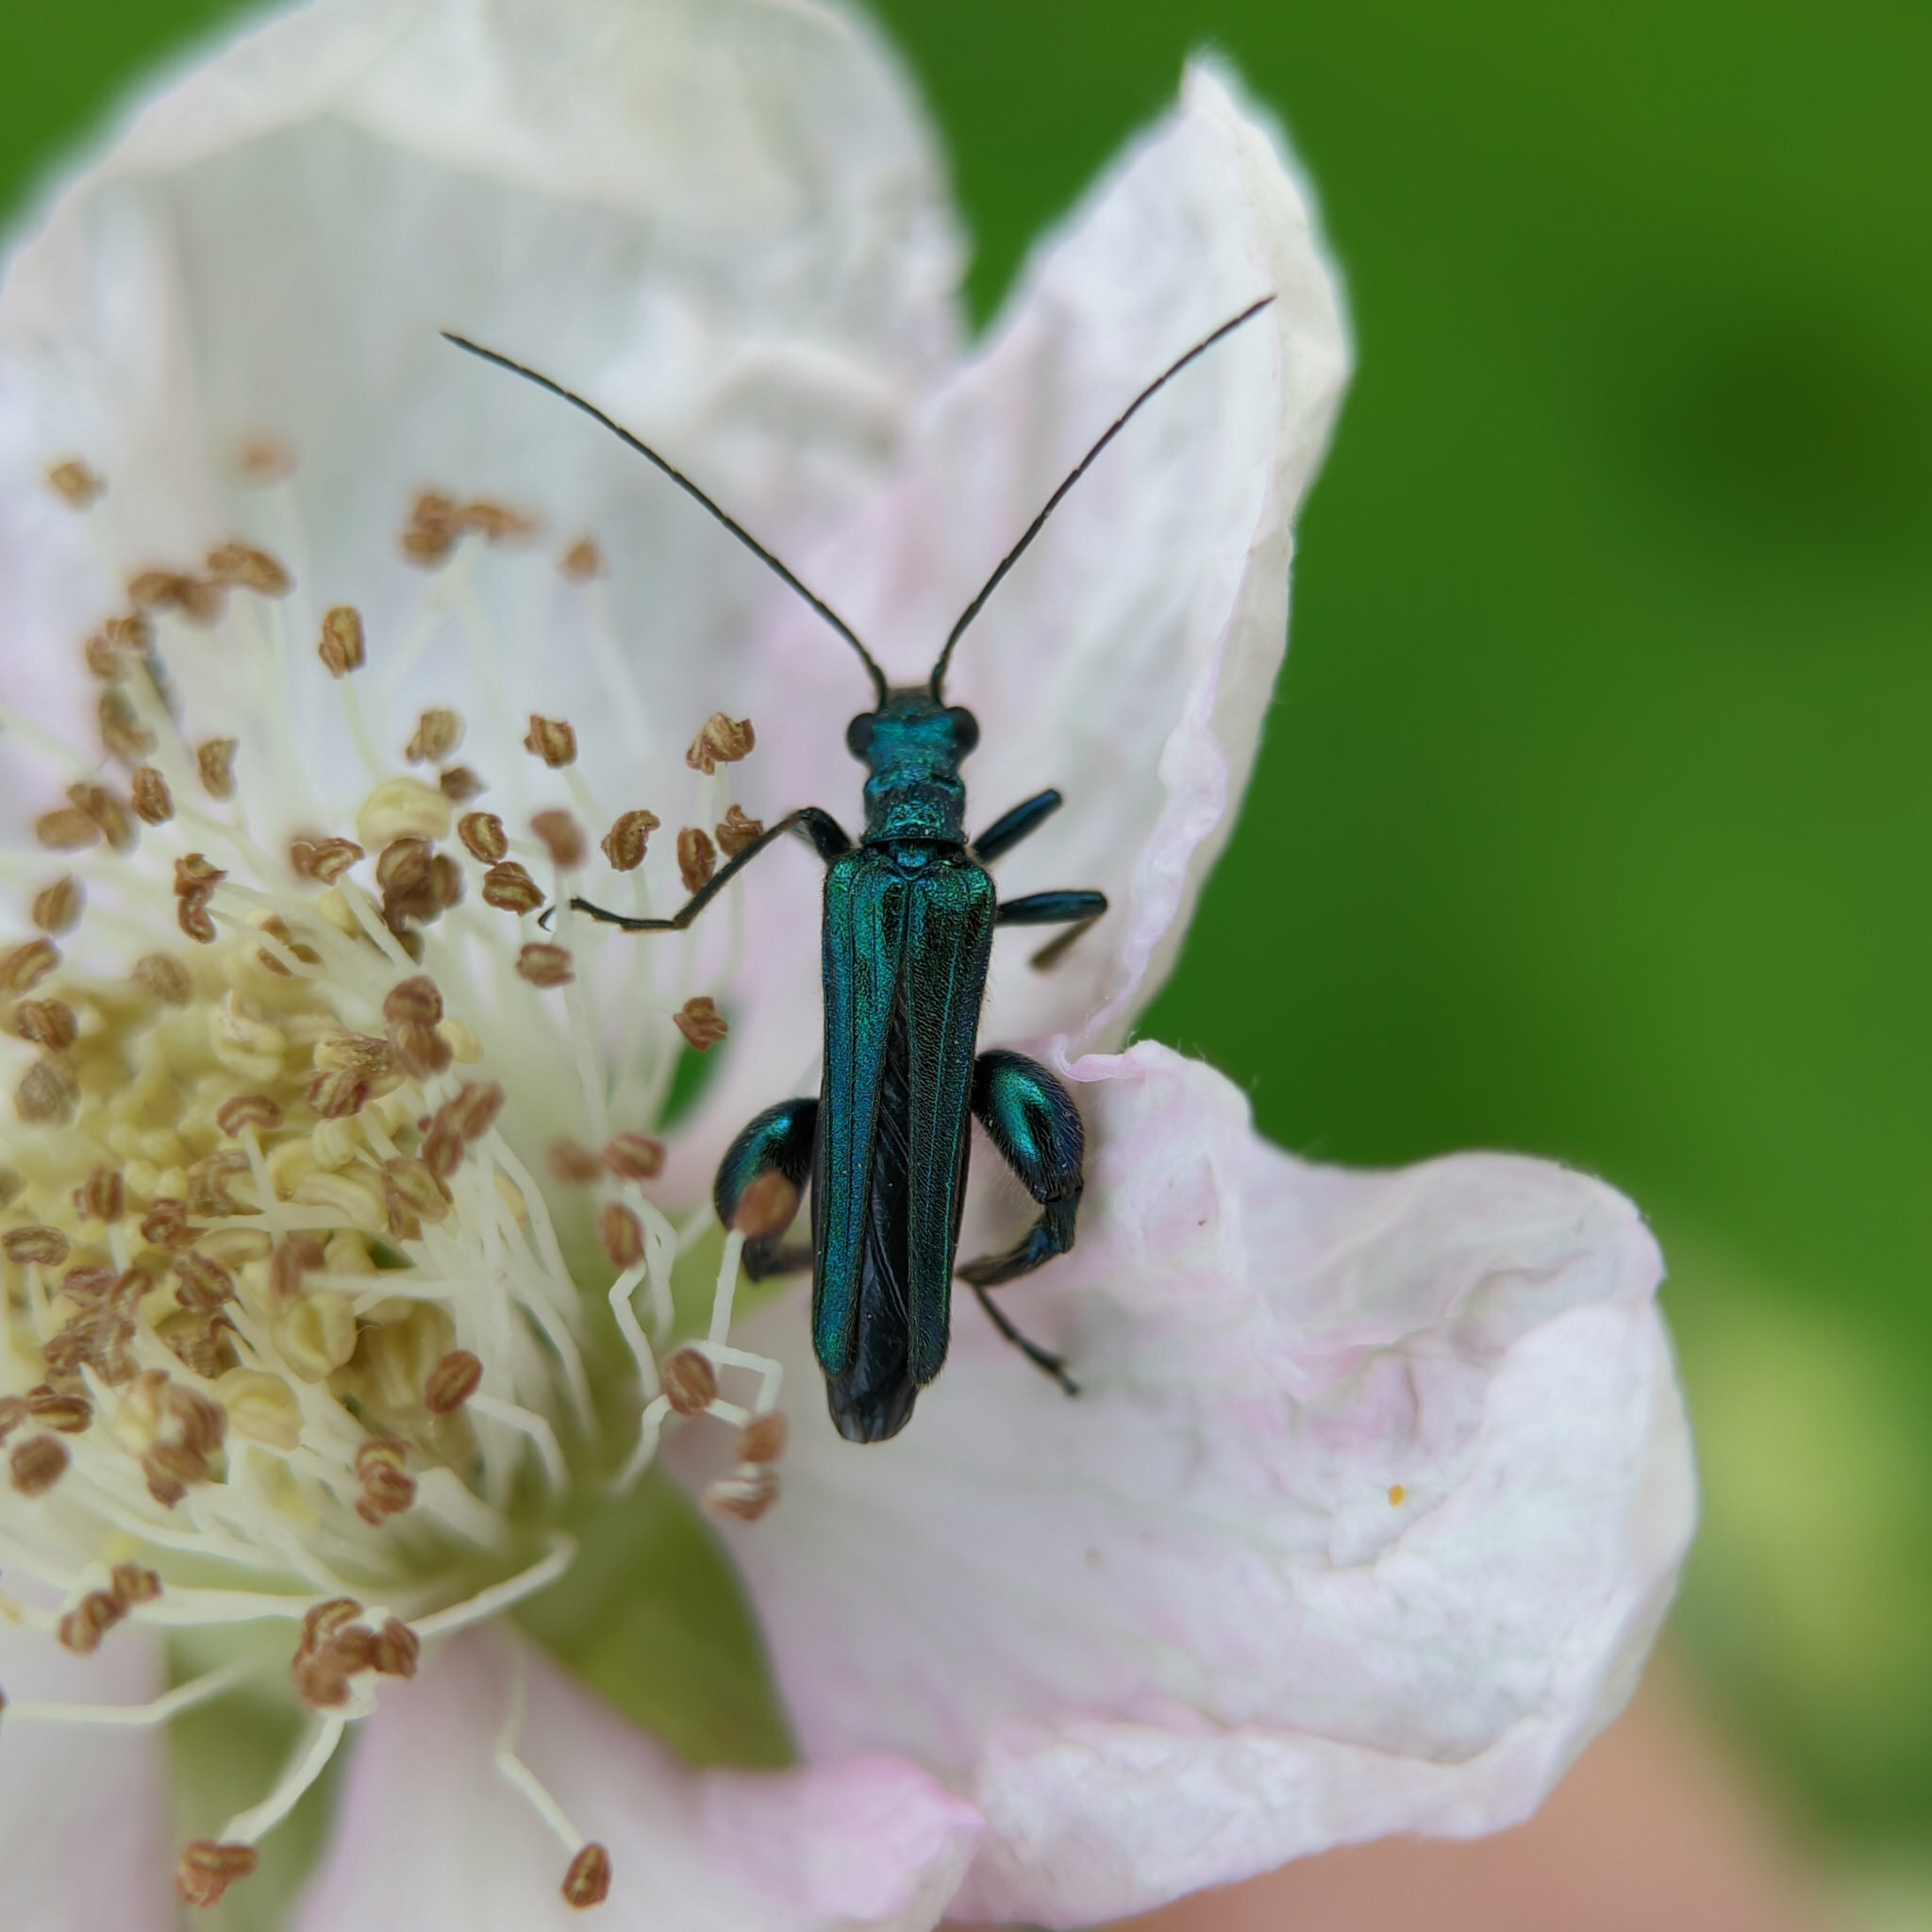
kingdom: Animalia
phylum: Arthropoda
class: Insecta
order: Coleoptera
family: Oedemeridae
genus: Oedemera
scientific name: Oedemera nobilis
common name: Swollen-thighed beetle
